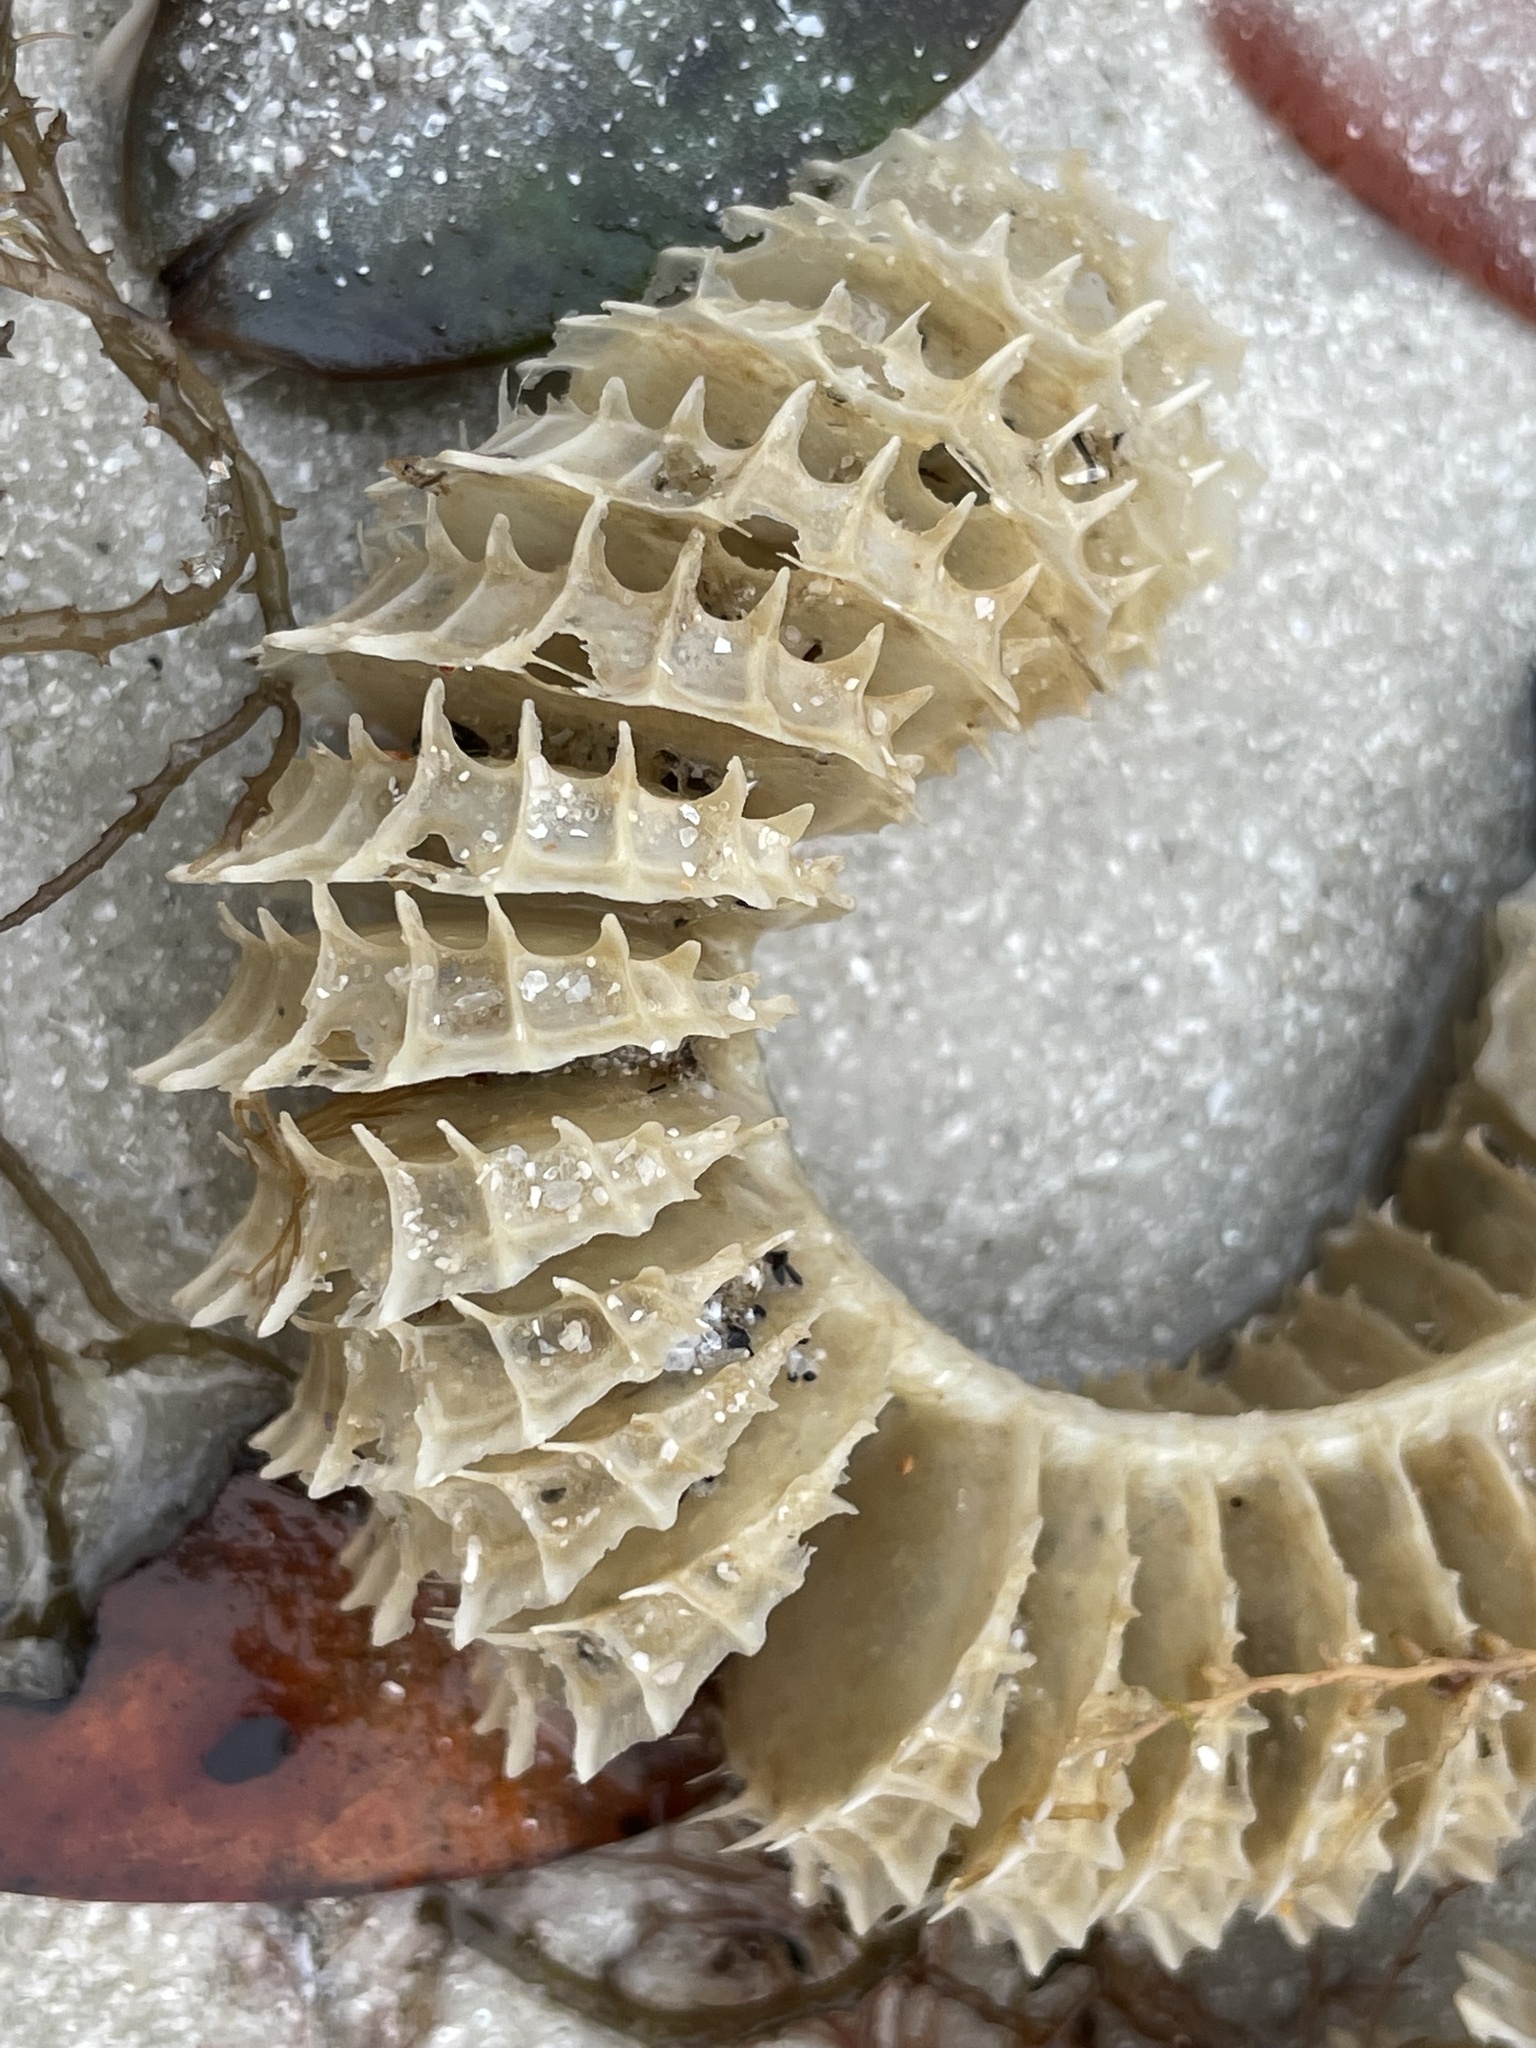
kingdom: Animalia
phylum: Mollusca
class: Gastropoda
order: Neogastropoda
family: Busyconidae
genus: Fulguropsis
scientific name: Fulguropsis pyruloides
